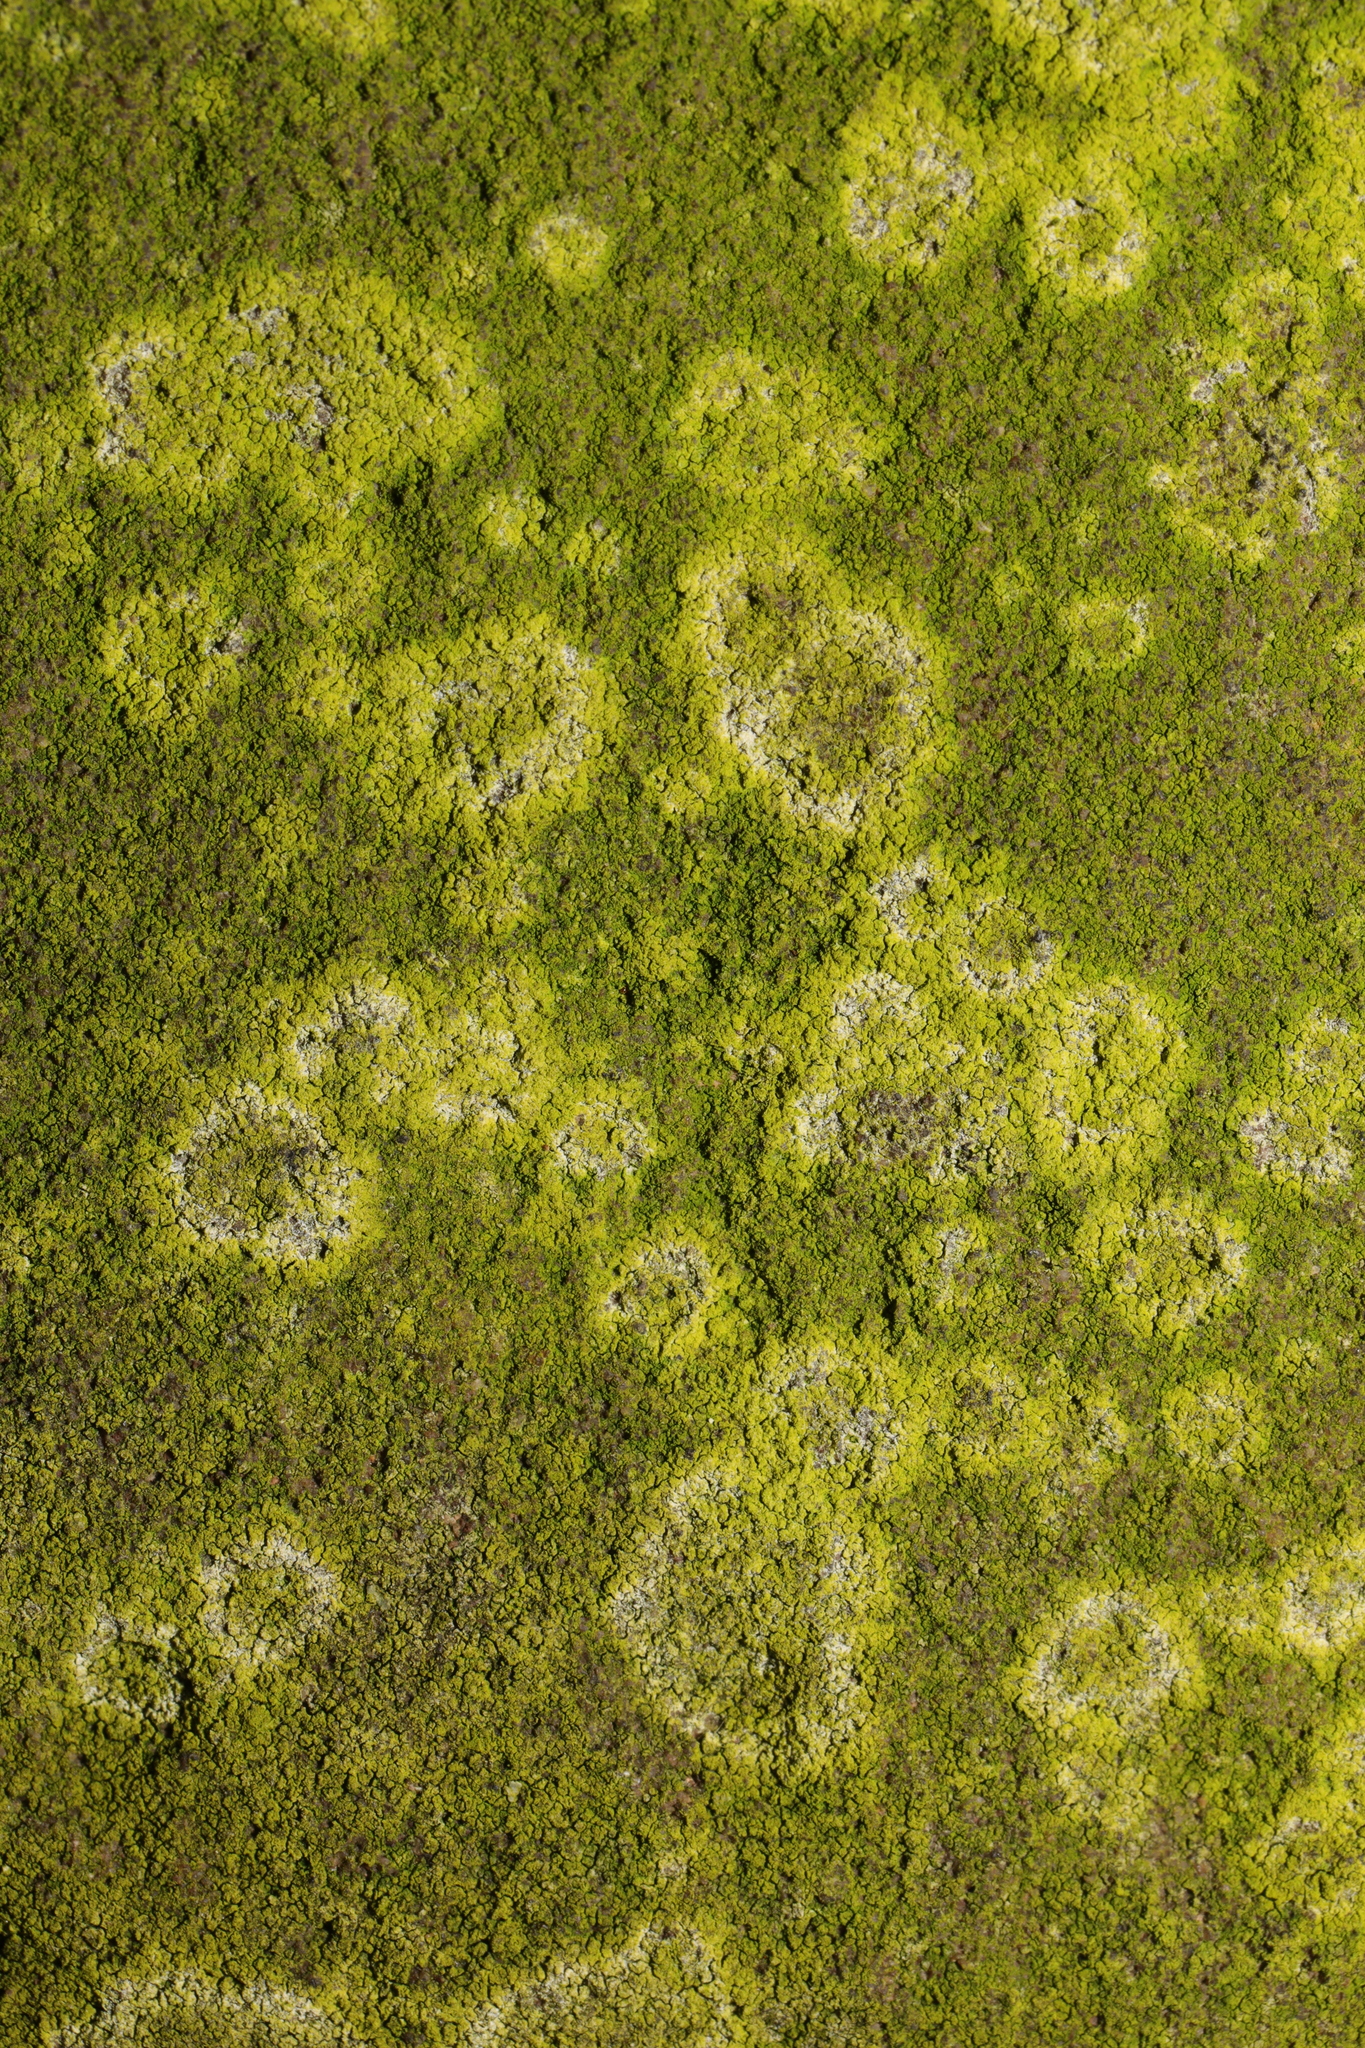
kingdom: Fungi
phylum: Basidiomycota
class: Agaricomycetes
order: Atheliales
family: Atheliaceae
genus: Athelia
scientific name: Athelia arachnoidea
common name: Candelabra duster
